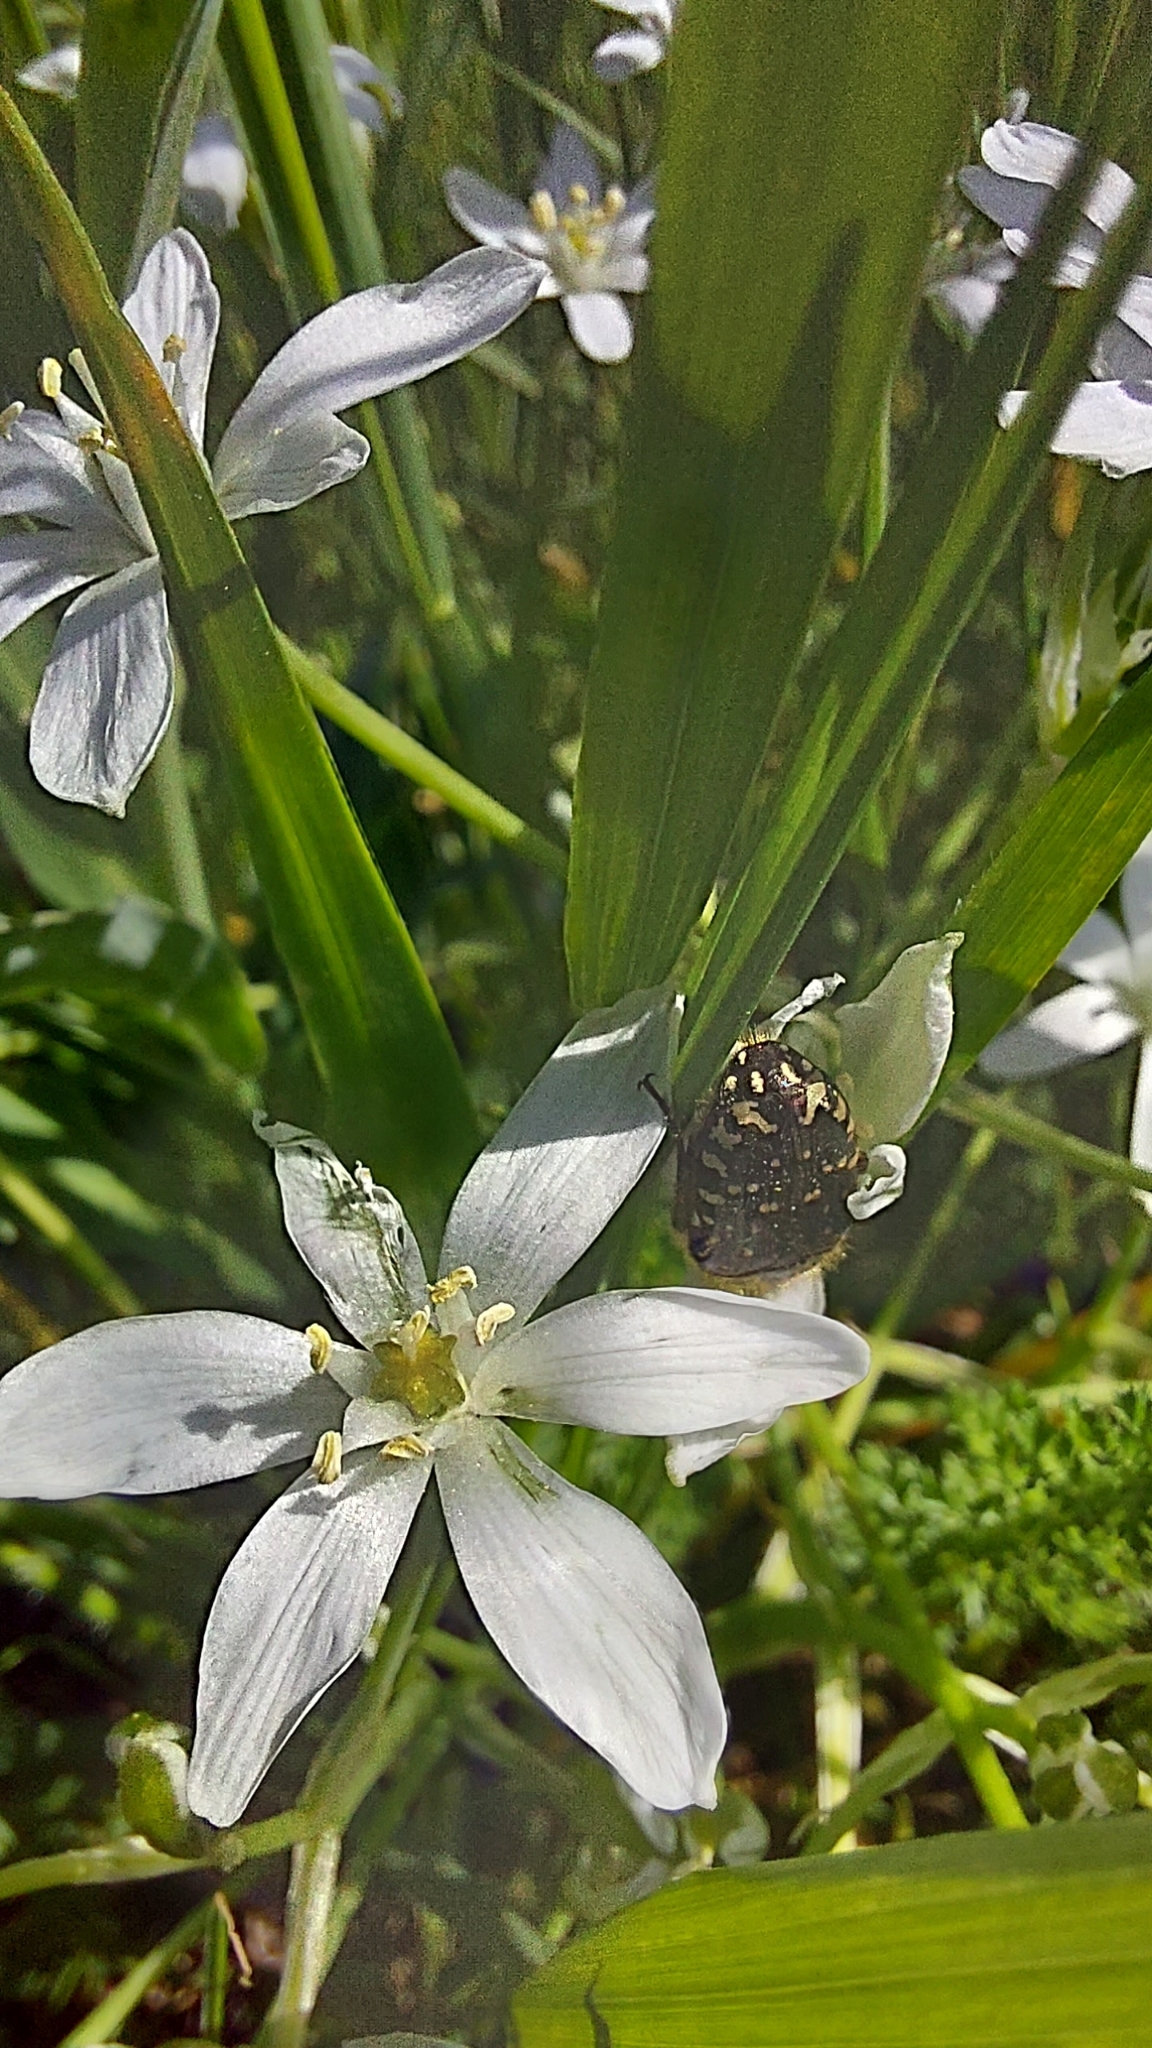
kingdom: Animalia
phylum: Arthropoda
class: Insecta
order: Coleoptera
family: Scarabaeidae
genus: Oxythyrea
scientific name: Oxythyrea funesta
